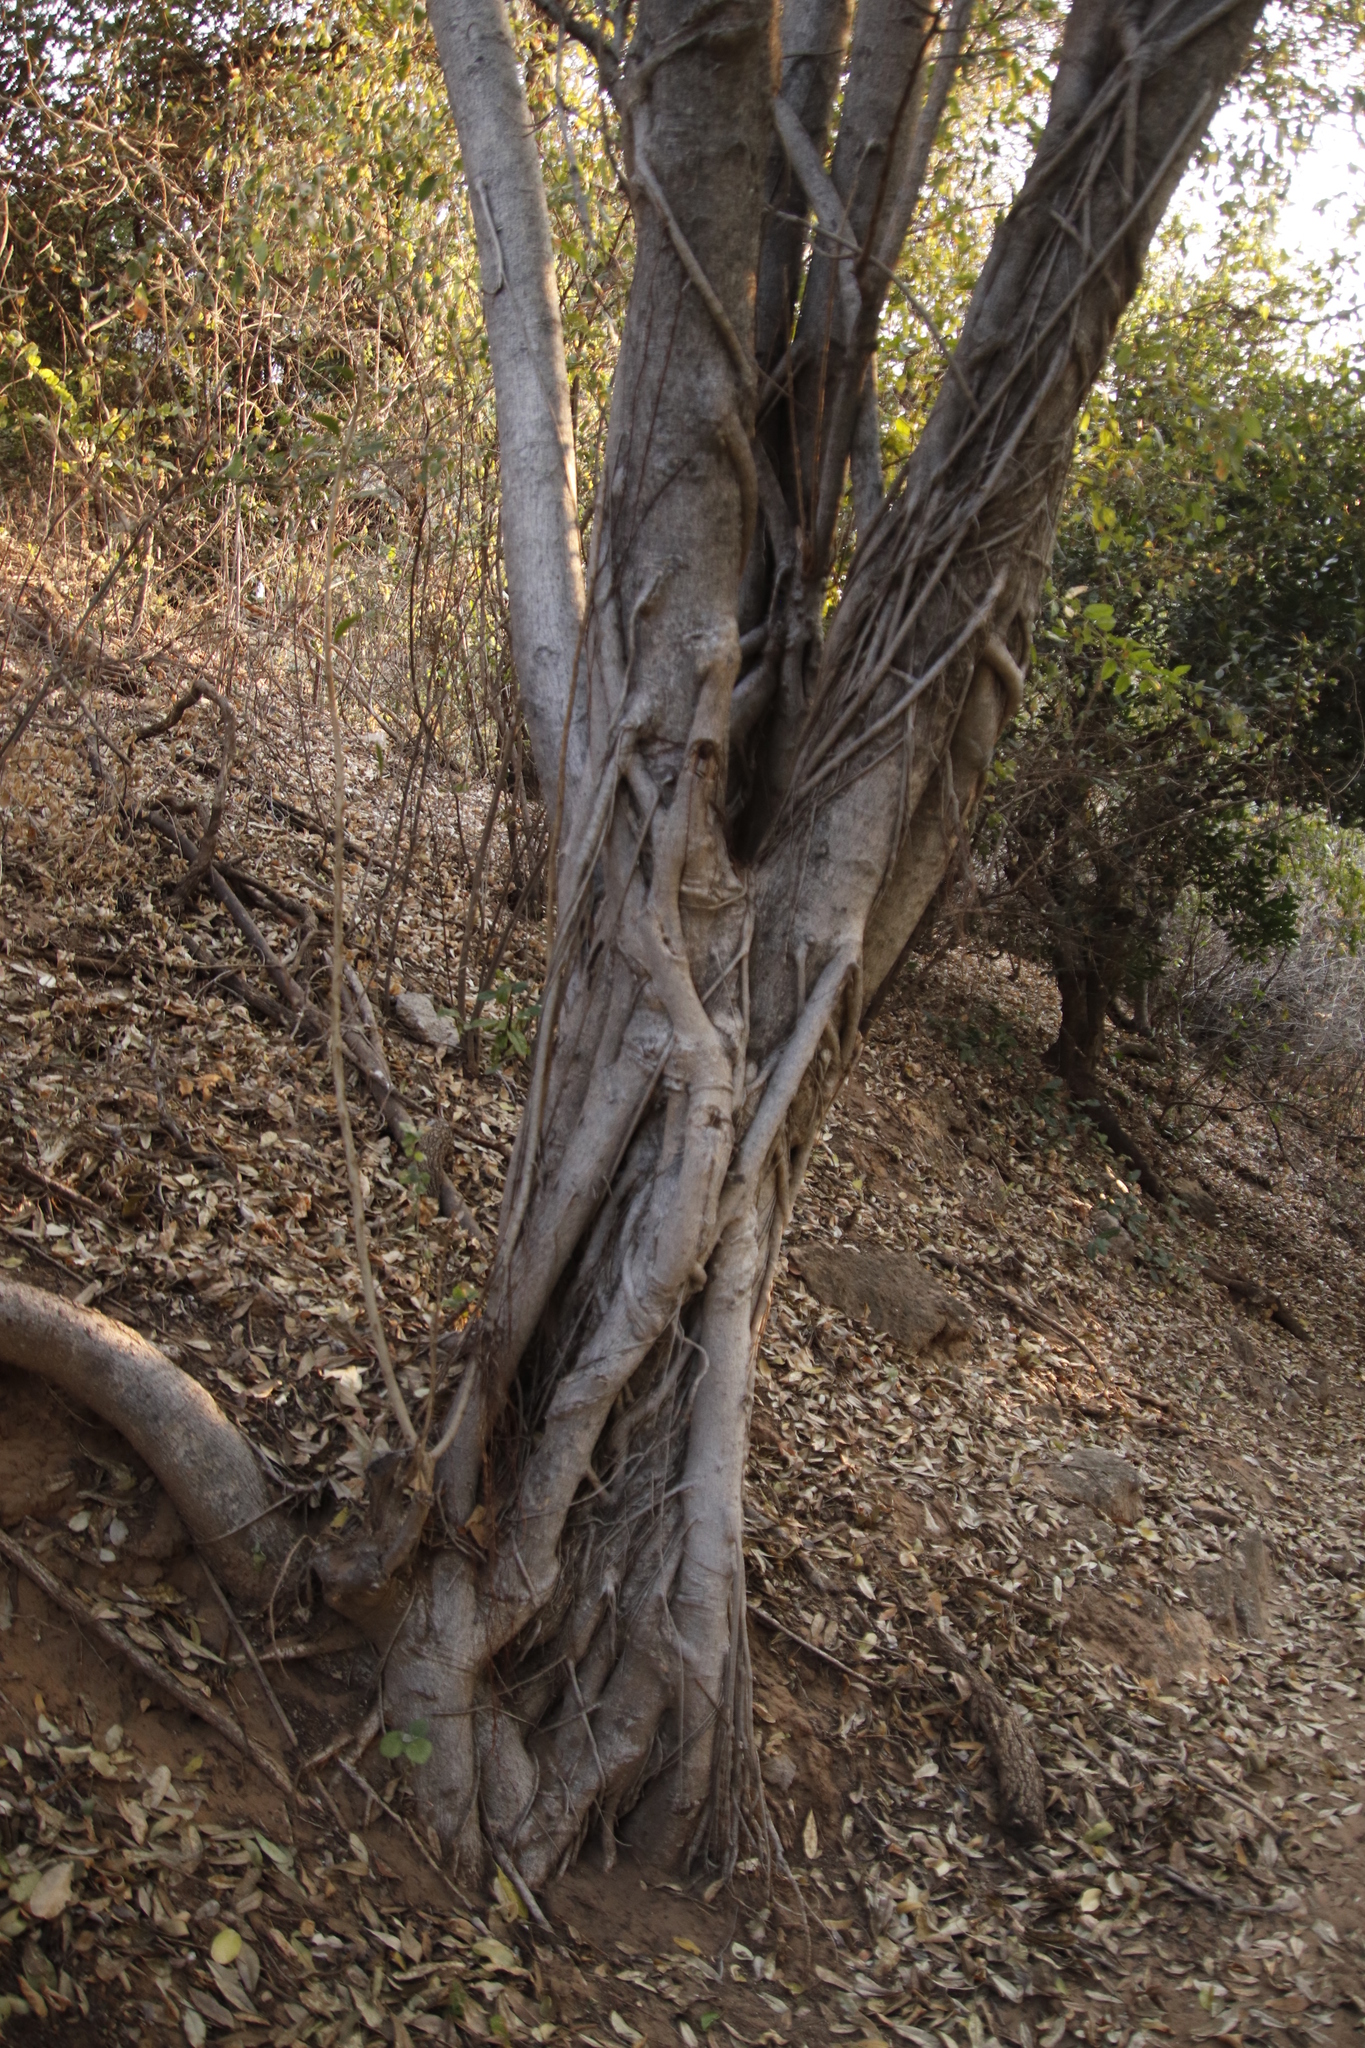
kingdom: Plantae
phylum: Tracheophyta
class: Magnoliopsida
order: Rosales
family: Moraceae
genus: Ficus
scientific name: Ficus thonningii
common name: Fig
